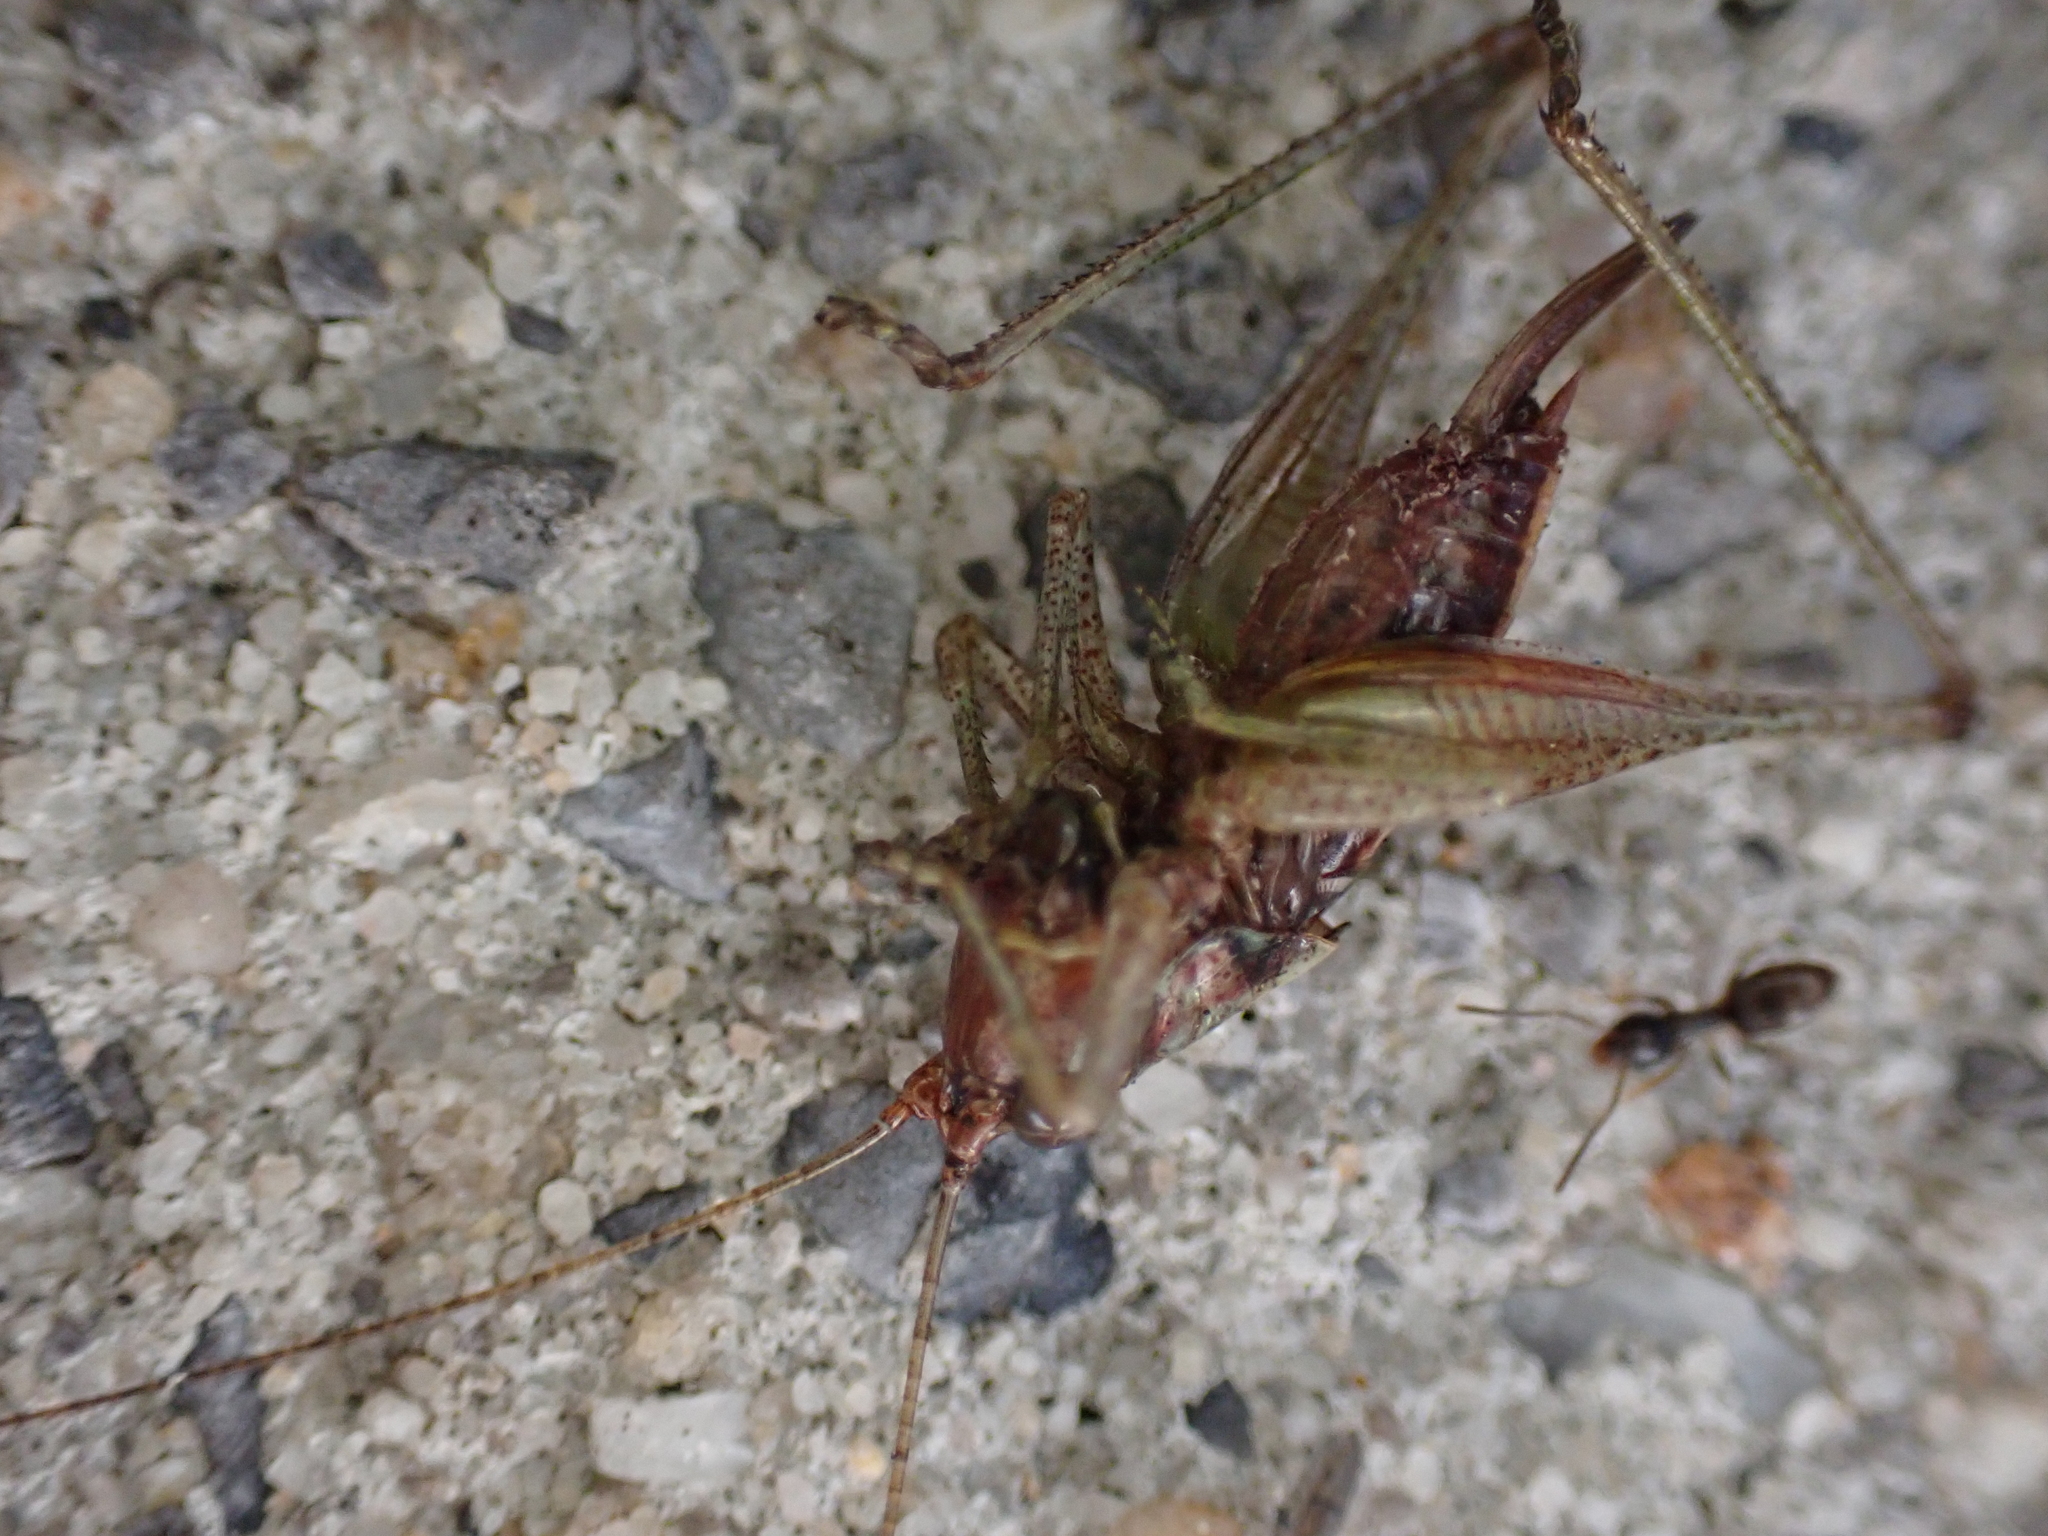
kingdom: Animalia
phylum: Arthropoda
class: Insecta
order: Orthoptera
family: Tettigoniidae
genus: Conocephalus
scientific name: Conocephalus nemoralis
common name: Woodland meadow katydid
